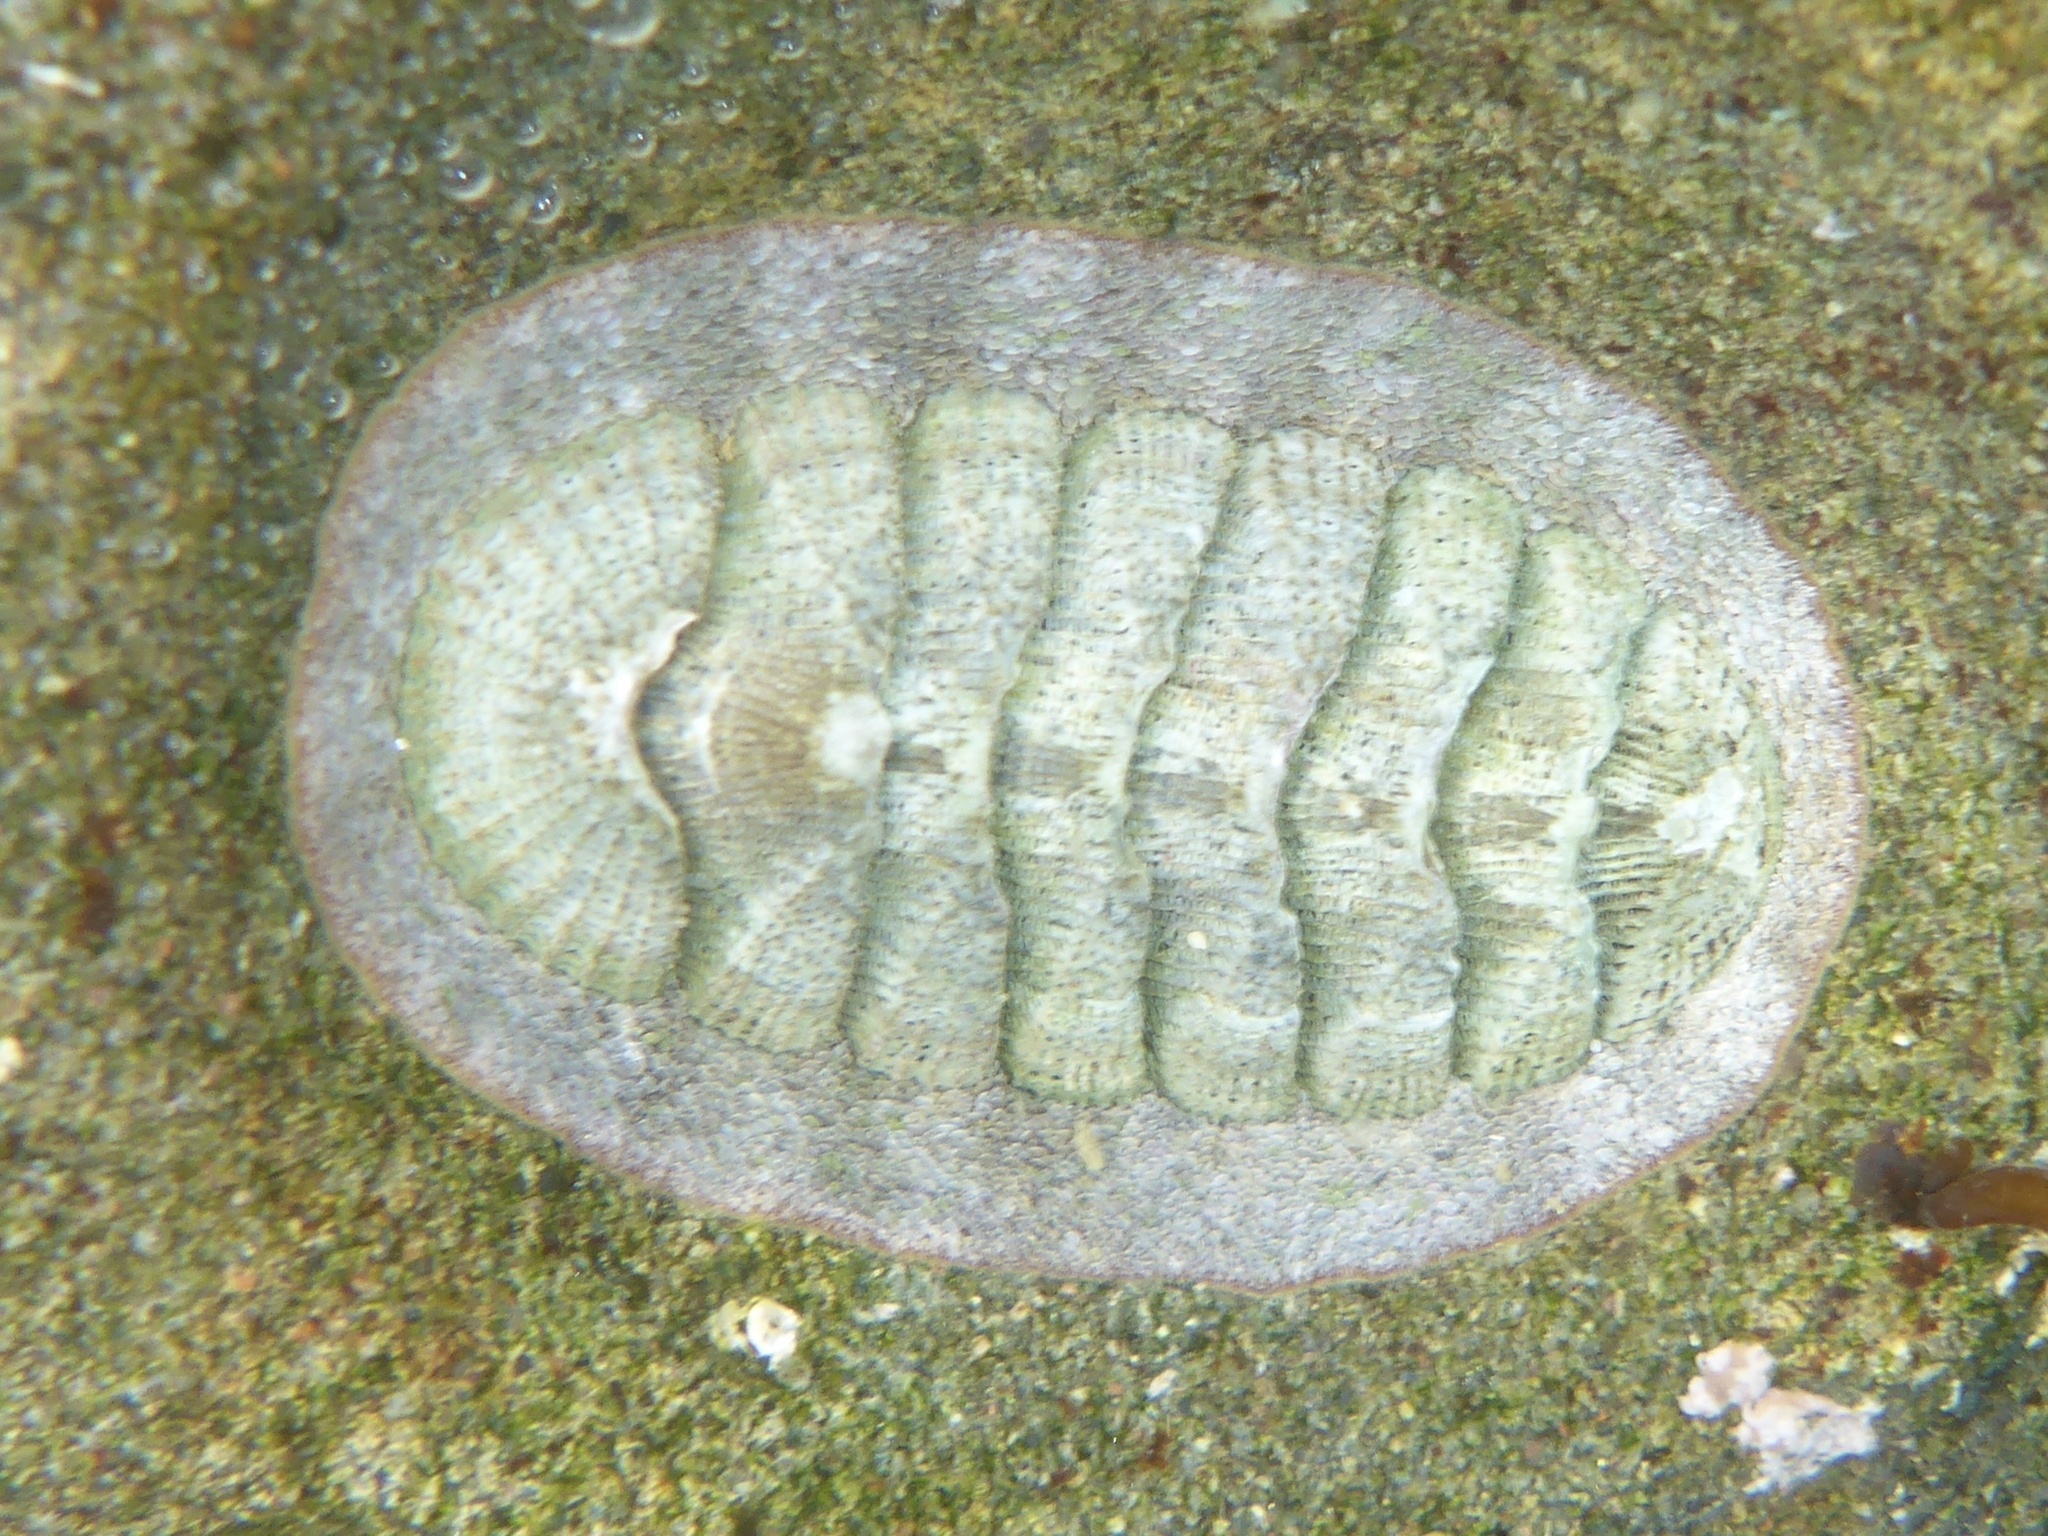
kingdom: Animalia
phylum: Mollusca
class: Polyplacophora
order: Chitonida
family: Ischnochitonidae
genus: Lepidozona
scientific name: Lepidozona cooperi
